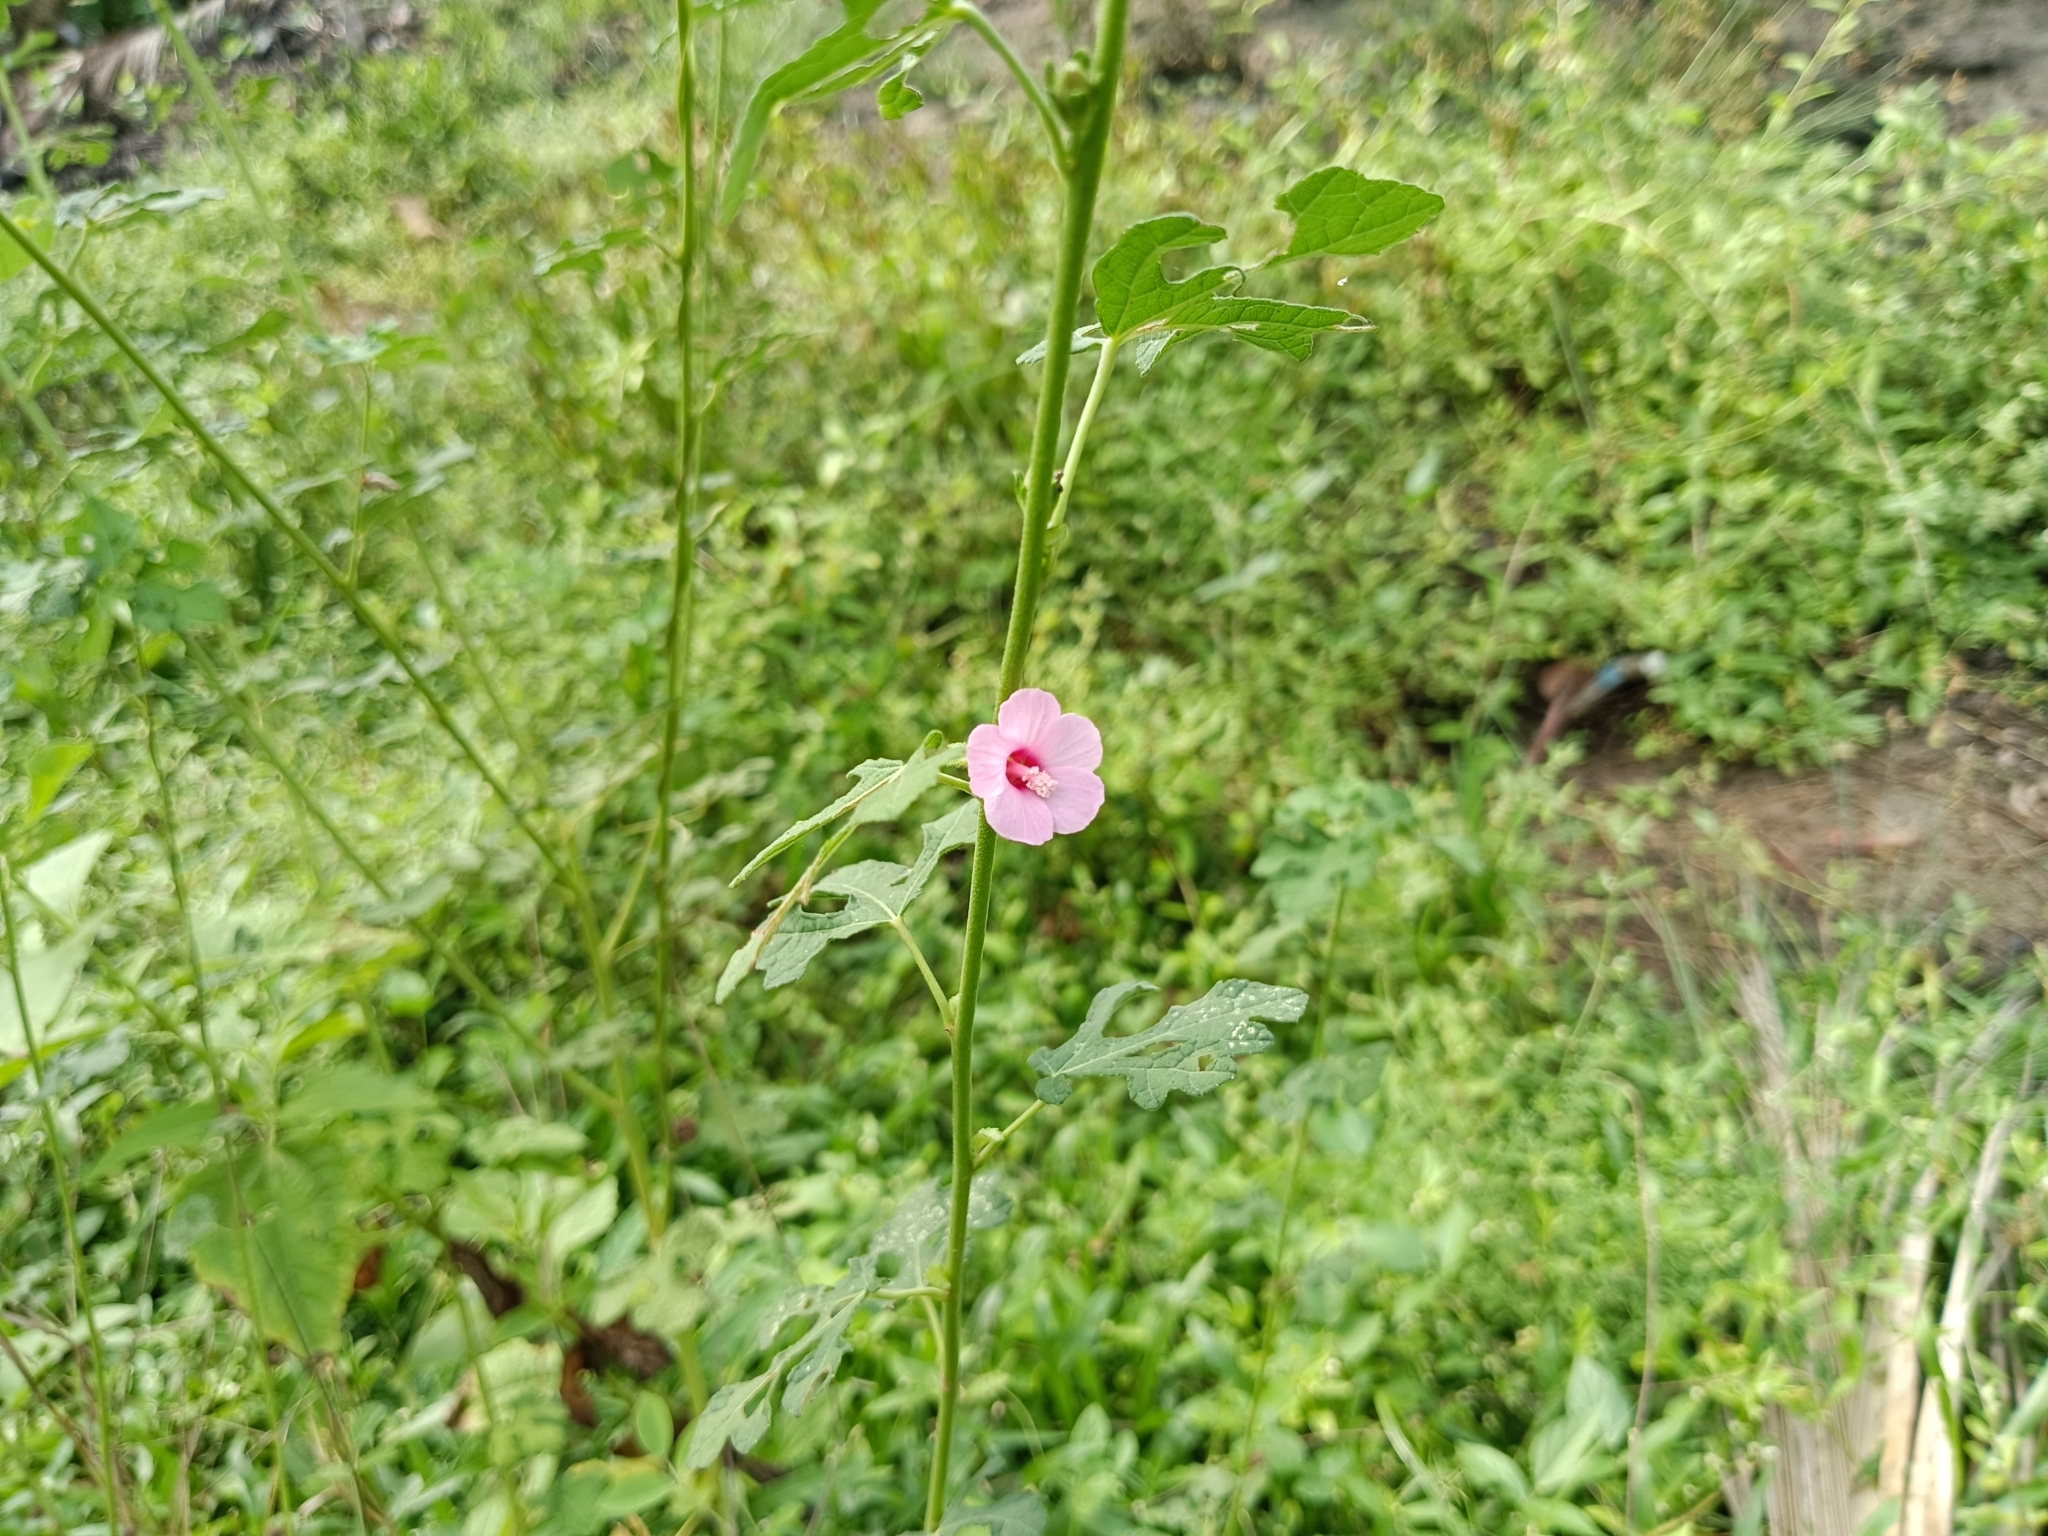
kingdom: Plantae
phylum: Tracheophyta
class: Magnoliopsida
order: Malvales
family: Malvaceae
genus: Urena
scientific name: Urena lobata
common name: Caesarweed
